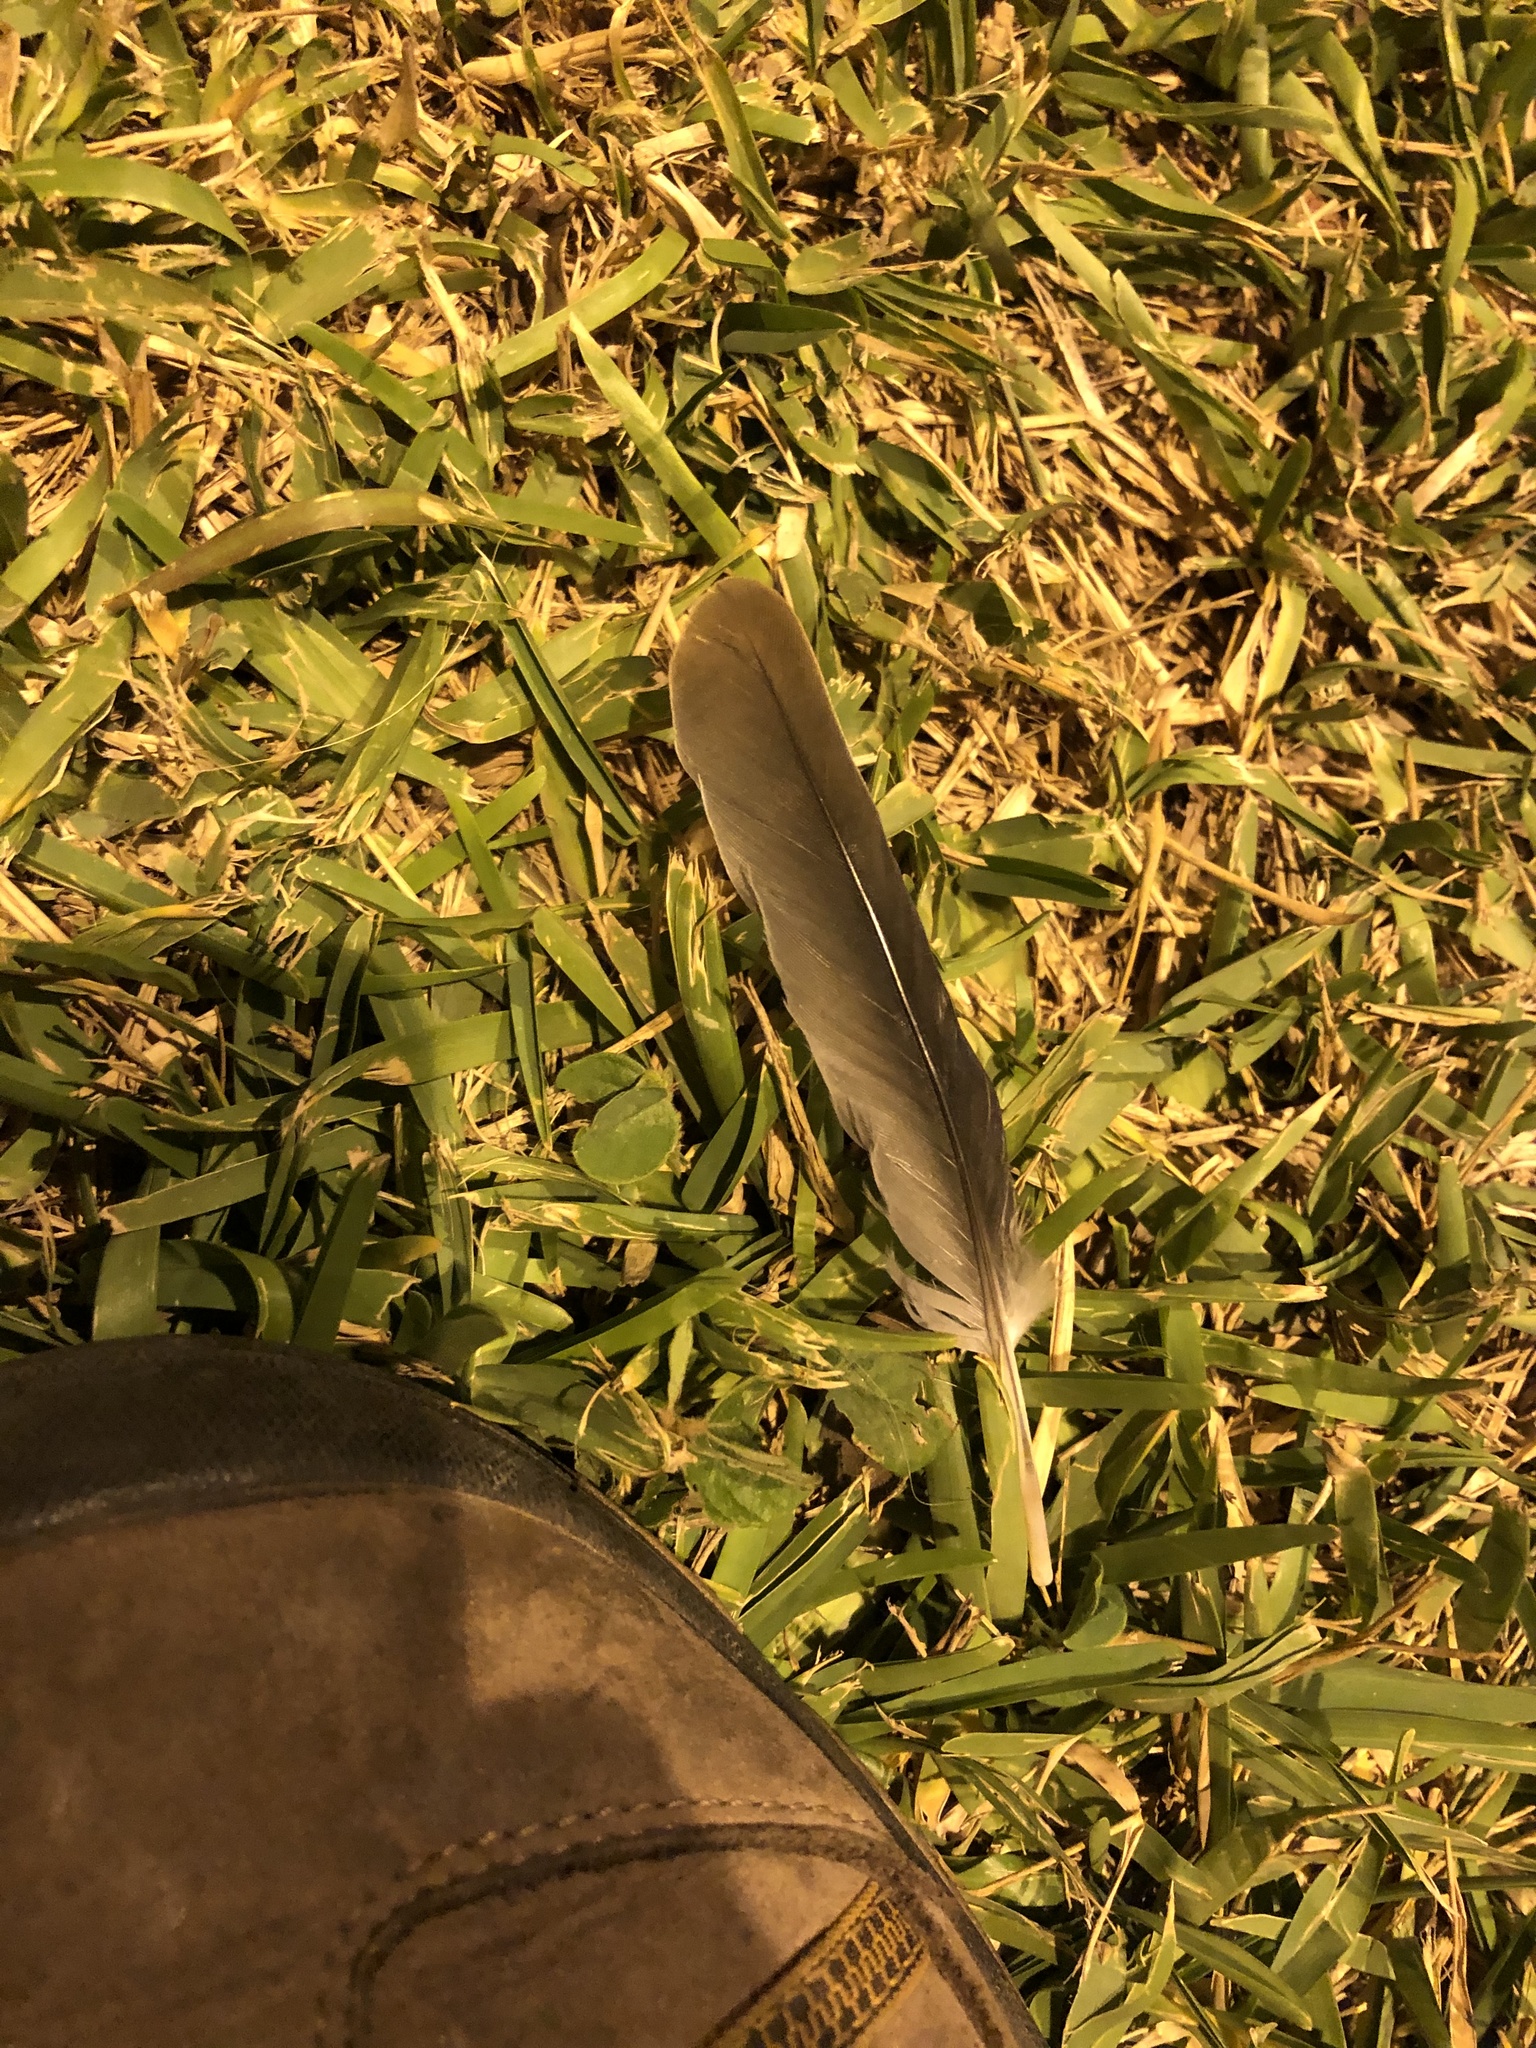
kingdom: Animalia
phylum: Chordata
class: Aves
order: Columbiformes
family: Columbidae
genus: Zenaida
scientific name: Zenaida meloda
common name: West peruvian dove
